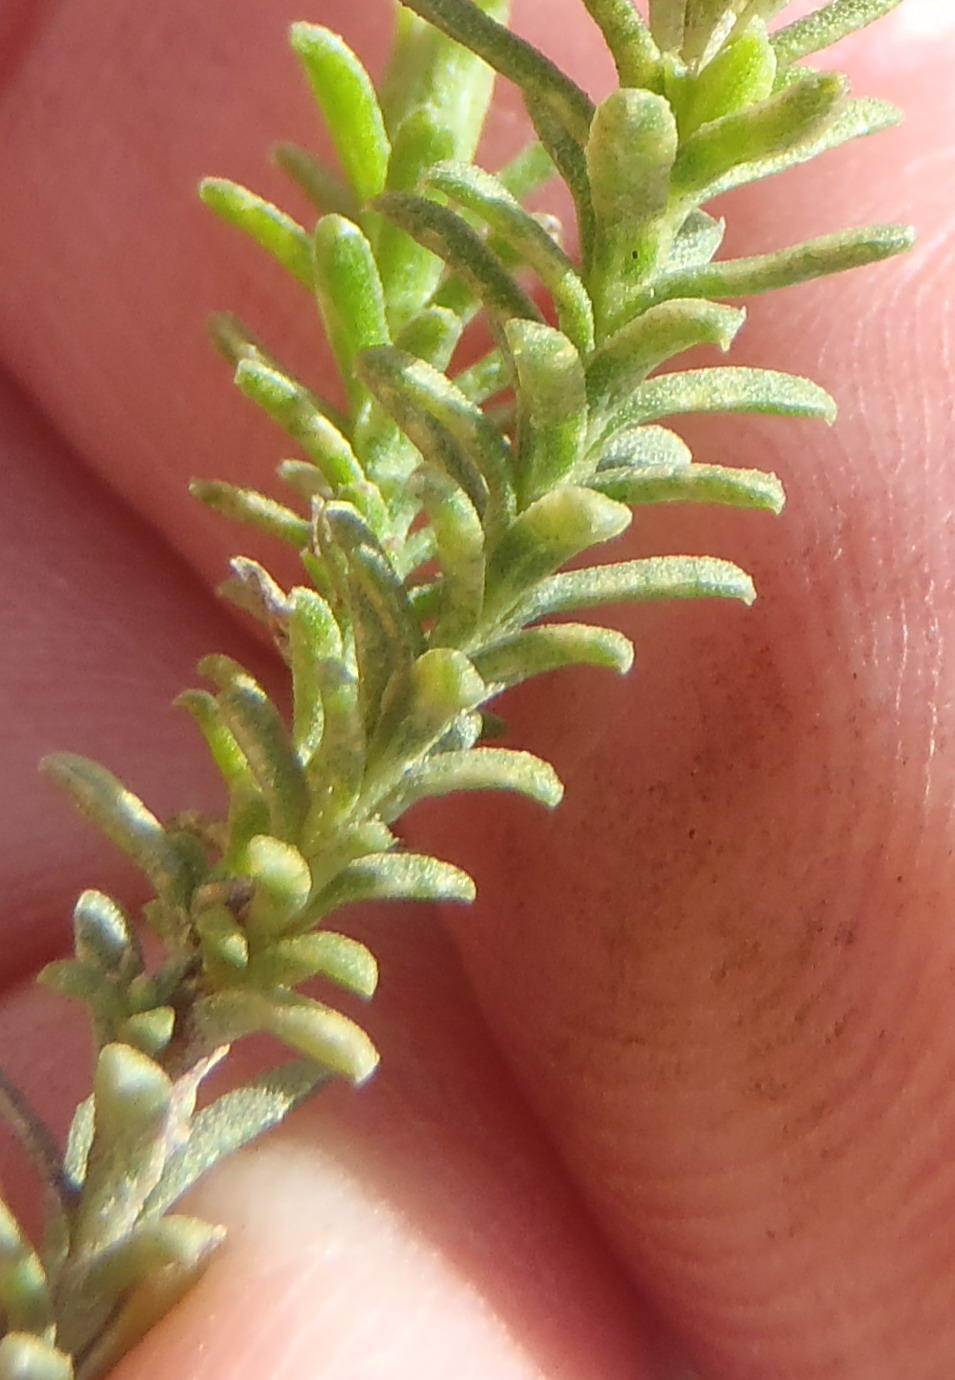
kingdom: Plantae
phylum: Tracheophyta
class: Magnoliopsida
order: Asterales
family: Asteraceae
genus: Oedera
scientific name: Oedera genistifolia
